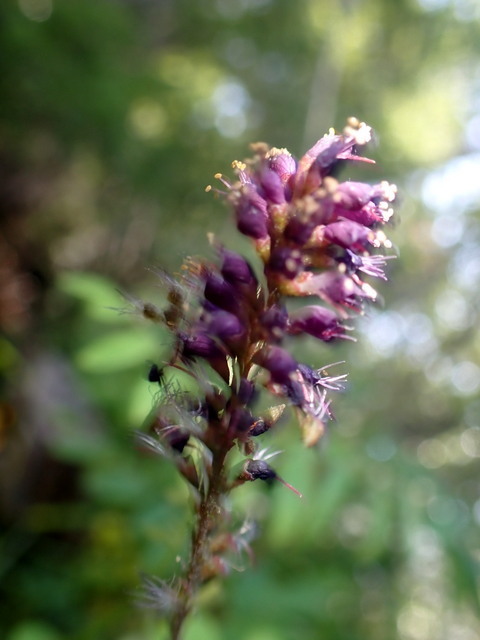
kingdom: Plantae
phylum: Tracheophyta
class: Magnoliopsida
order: Fabales
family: Fabaceae
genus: Amorpha
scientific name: Amorpha fruticosa
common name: False indigo
